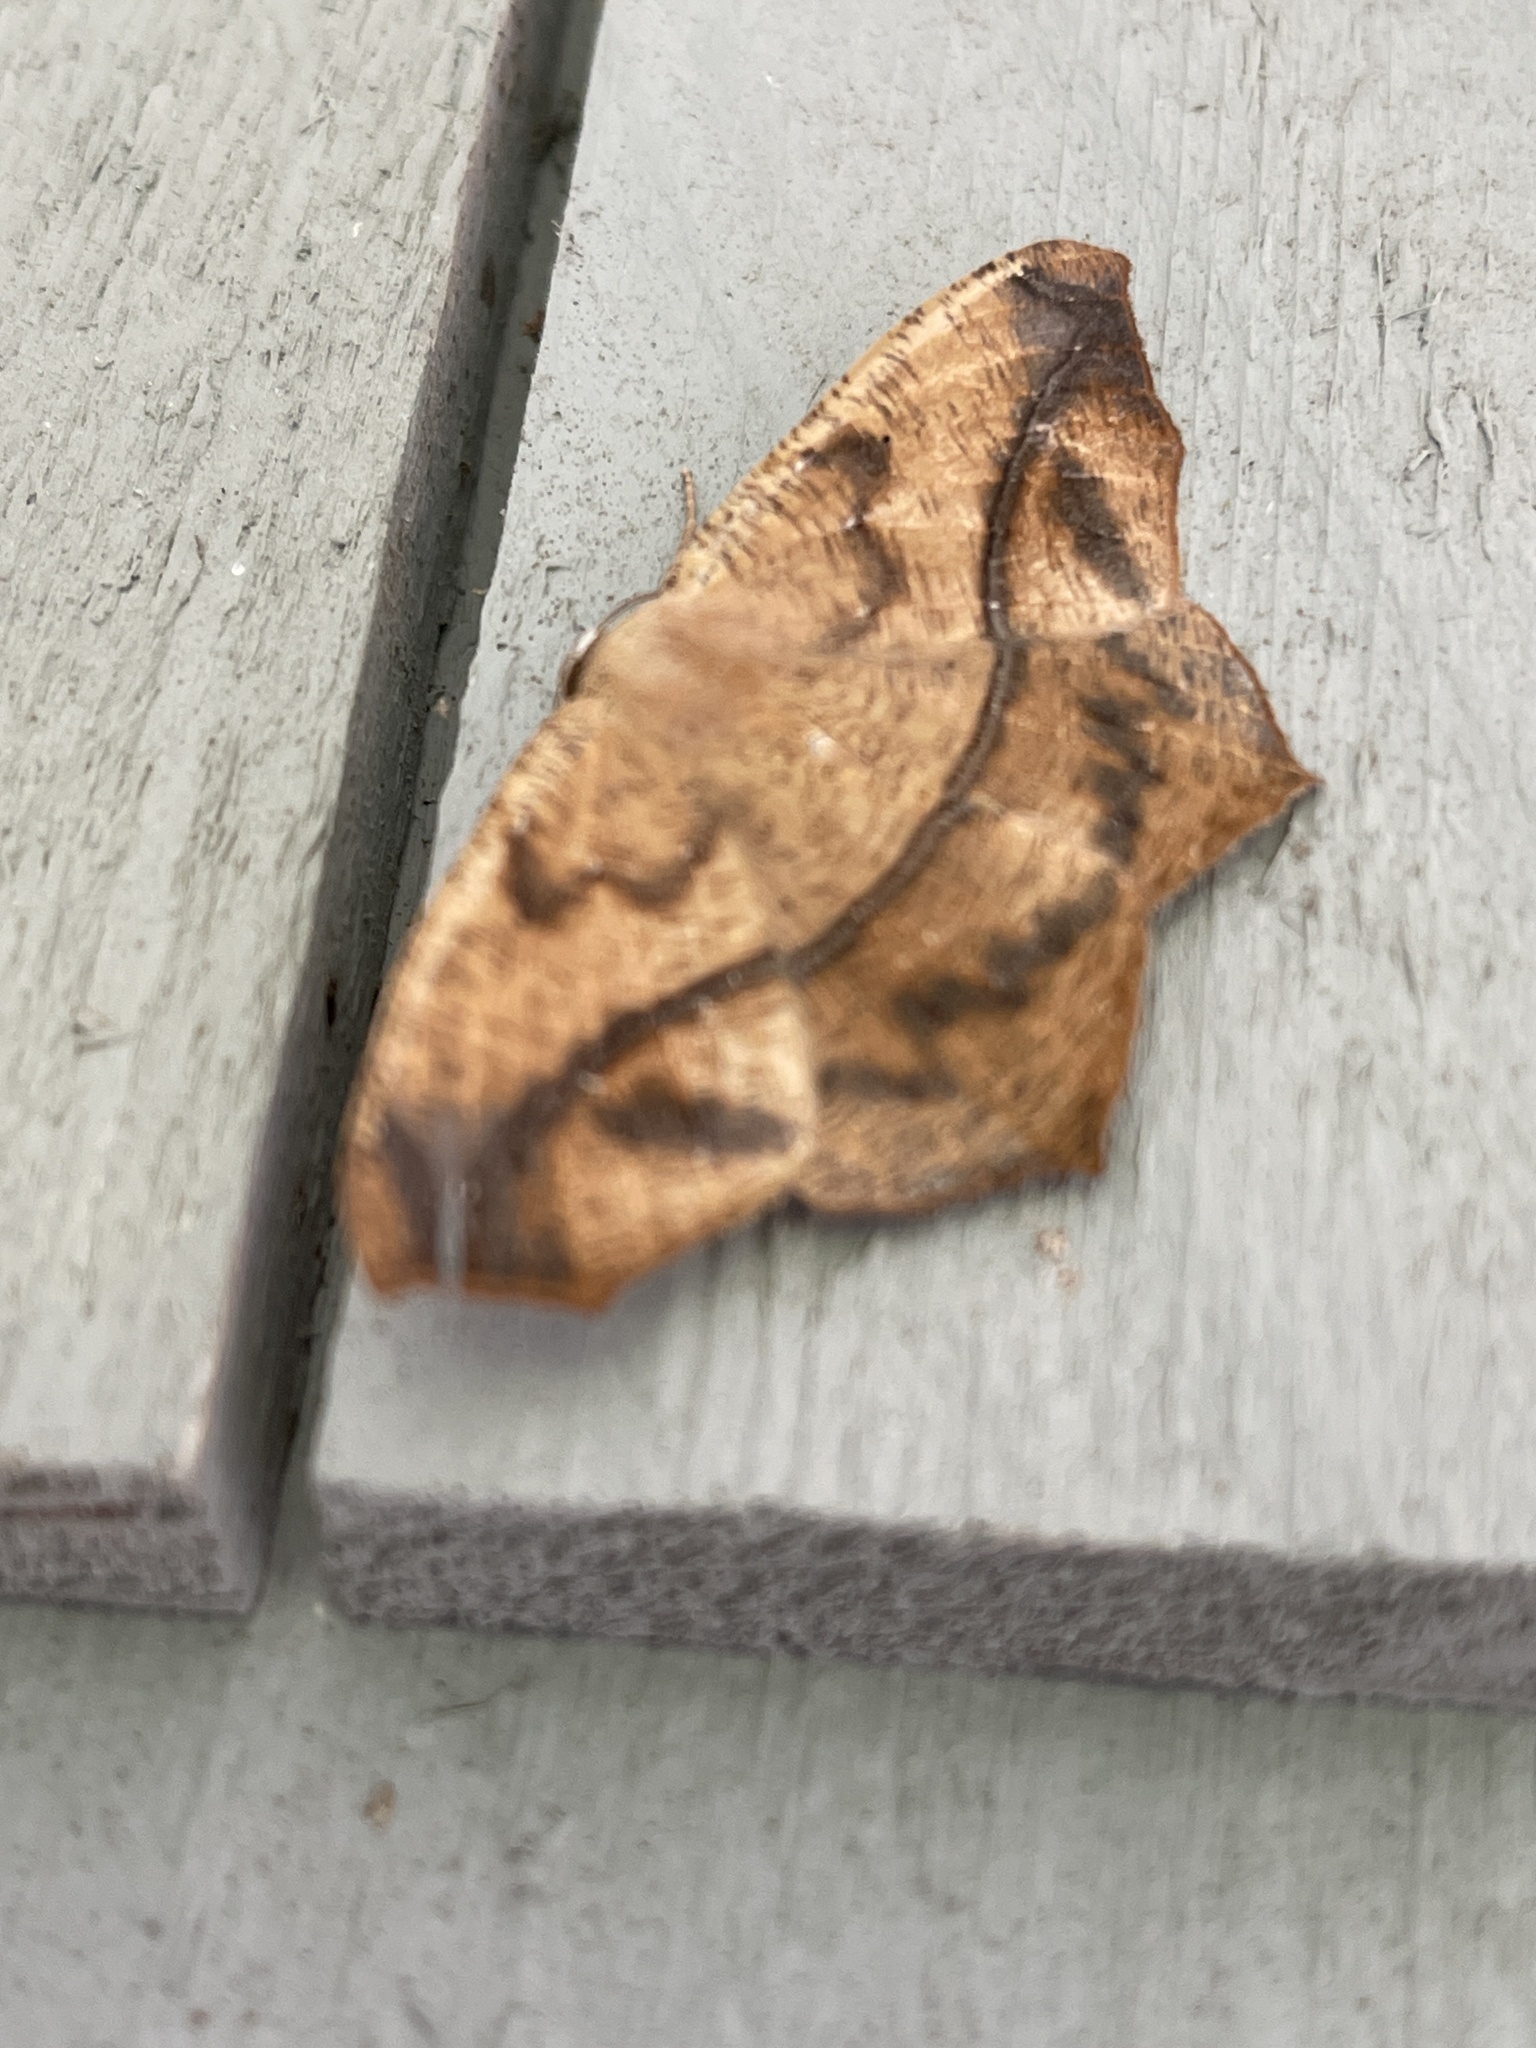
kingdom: Animalia
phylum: Arthropoda
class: Insecta
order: Lepidoptera
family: Geometridae
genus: Prochoerodes
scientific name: Prochoerodes lineola
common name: Large maple spanworm
